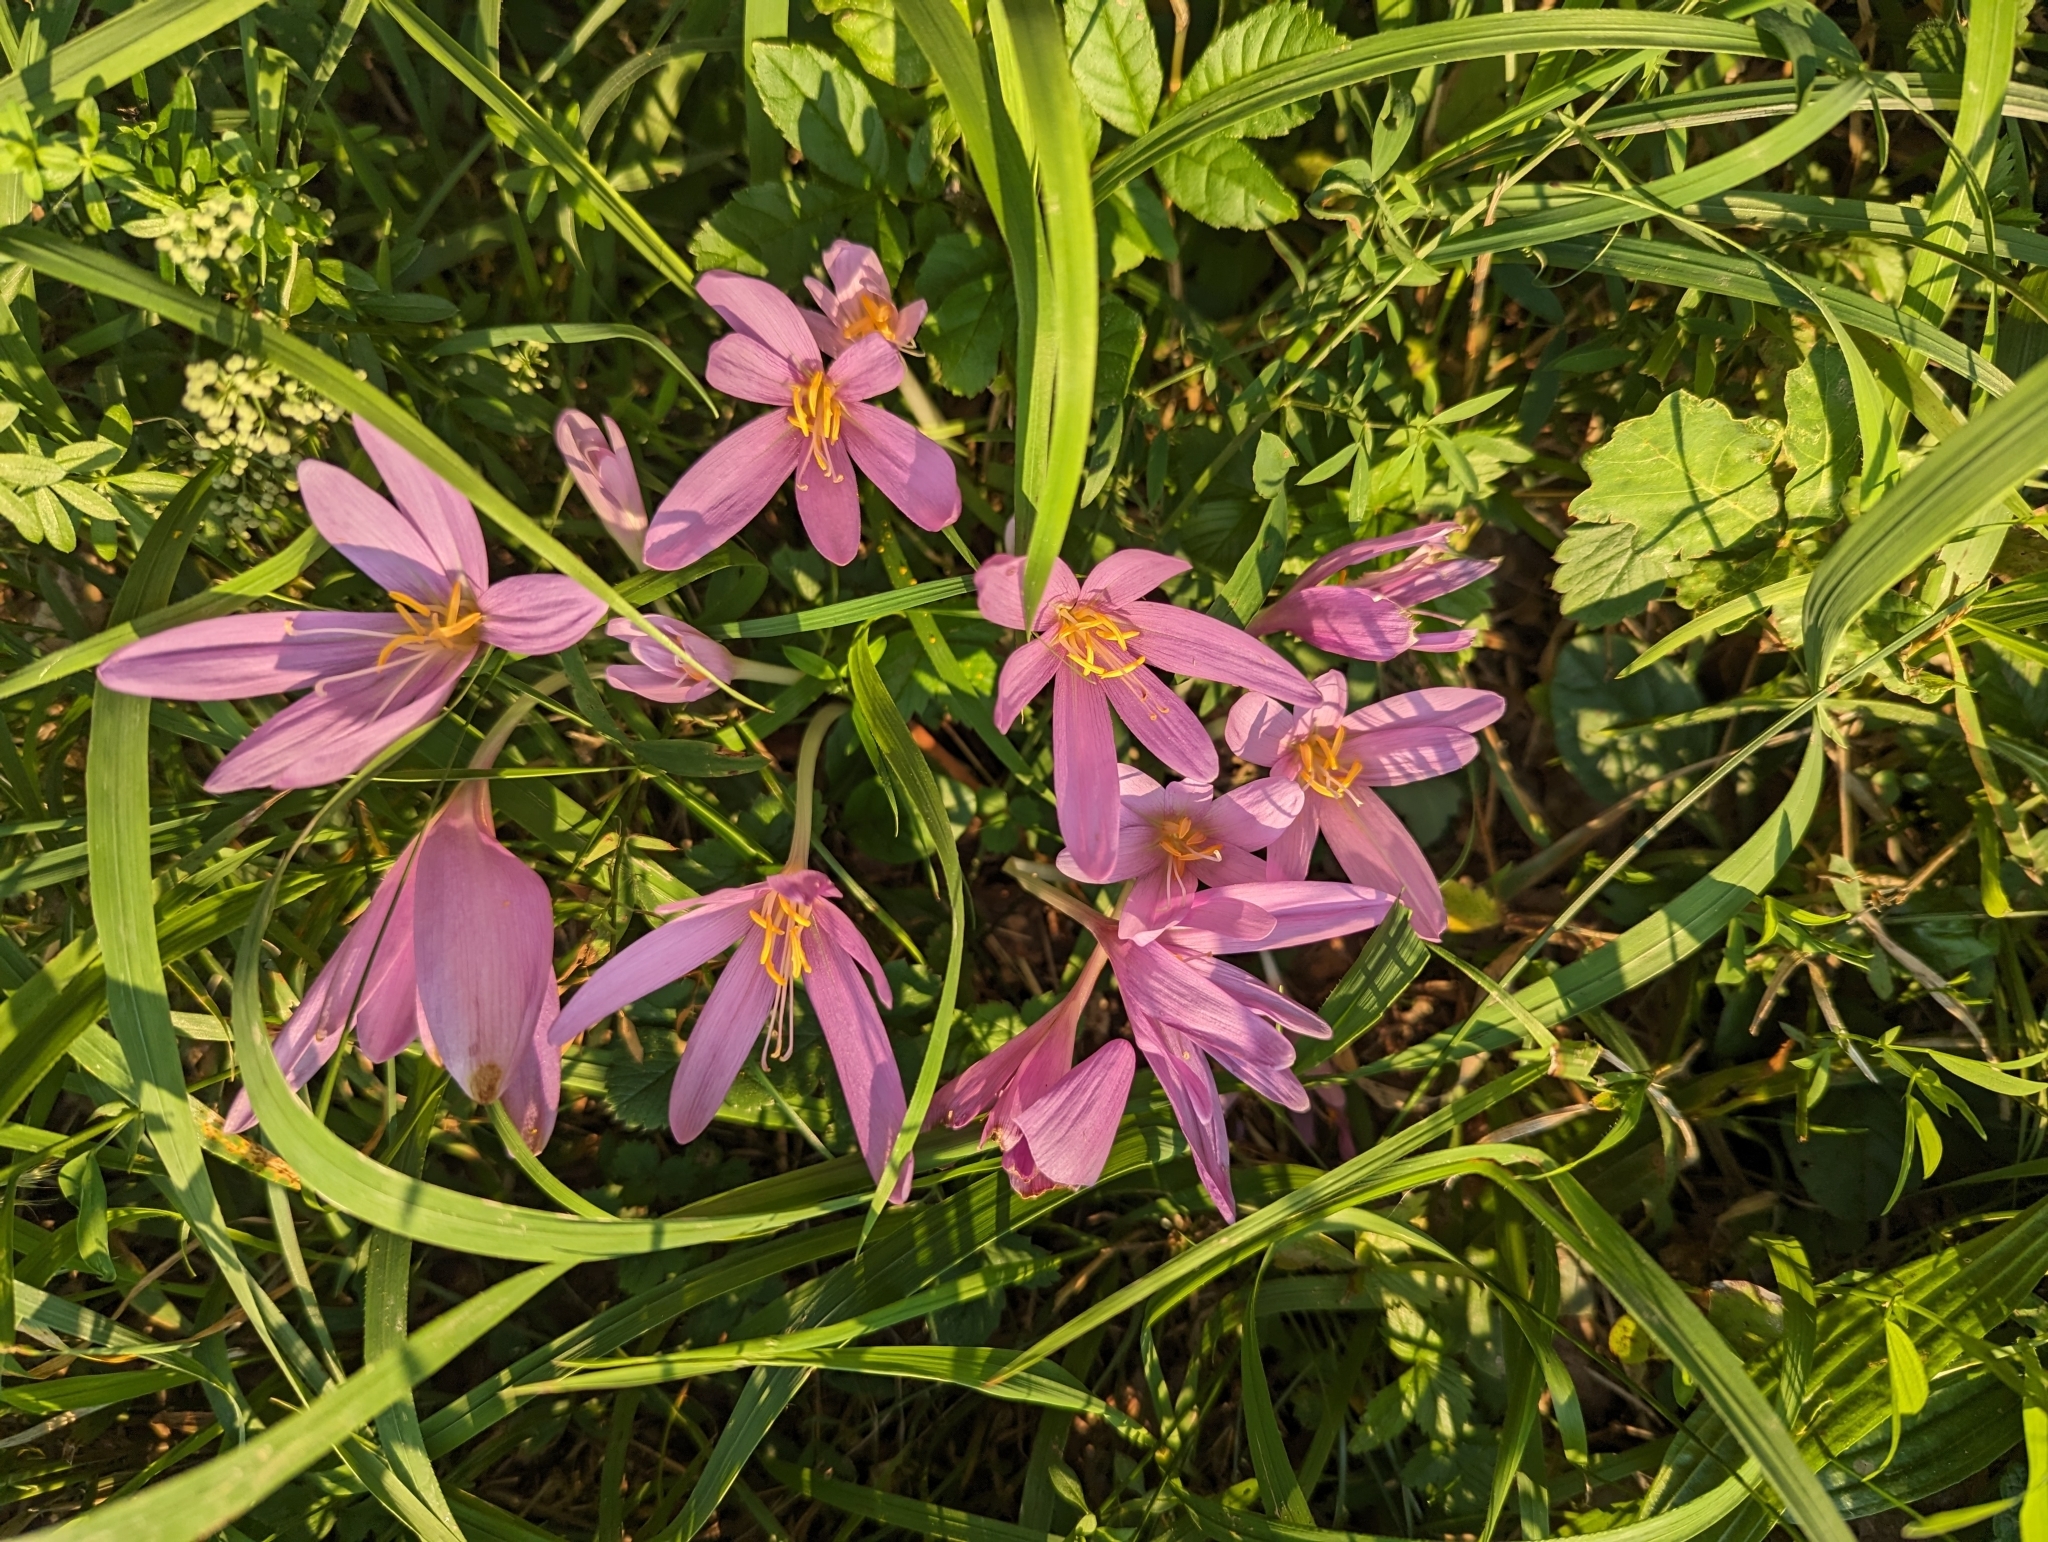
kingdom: Plantae
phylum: Tracheophyta
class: Liliopsida
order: Liliales
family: Colchicaceae
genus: Colchicum
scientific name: Colchicum autumnale
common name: Autumn crocus
